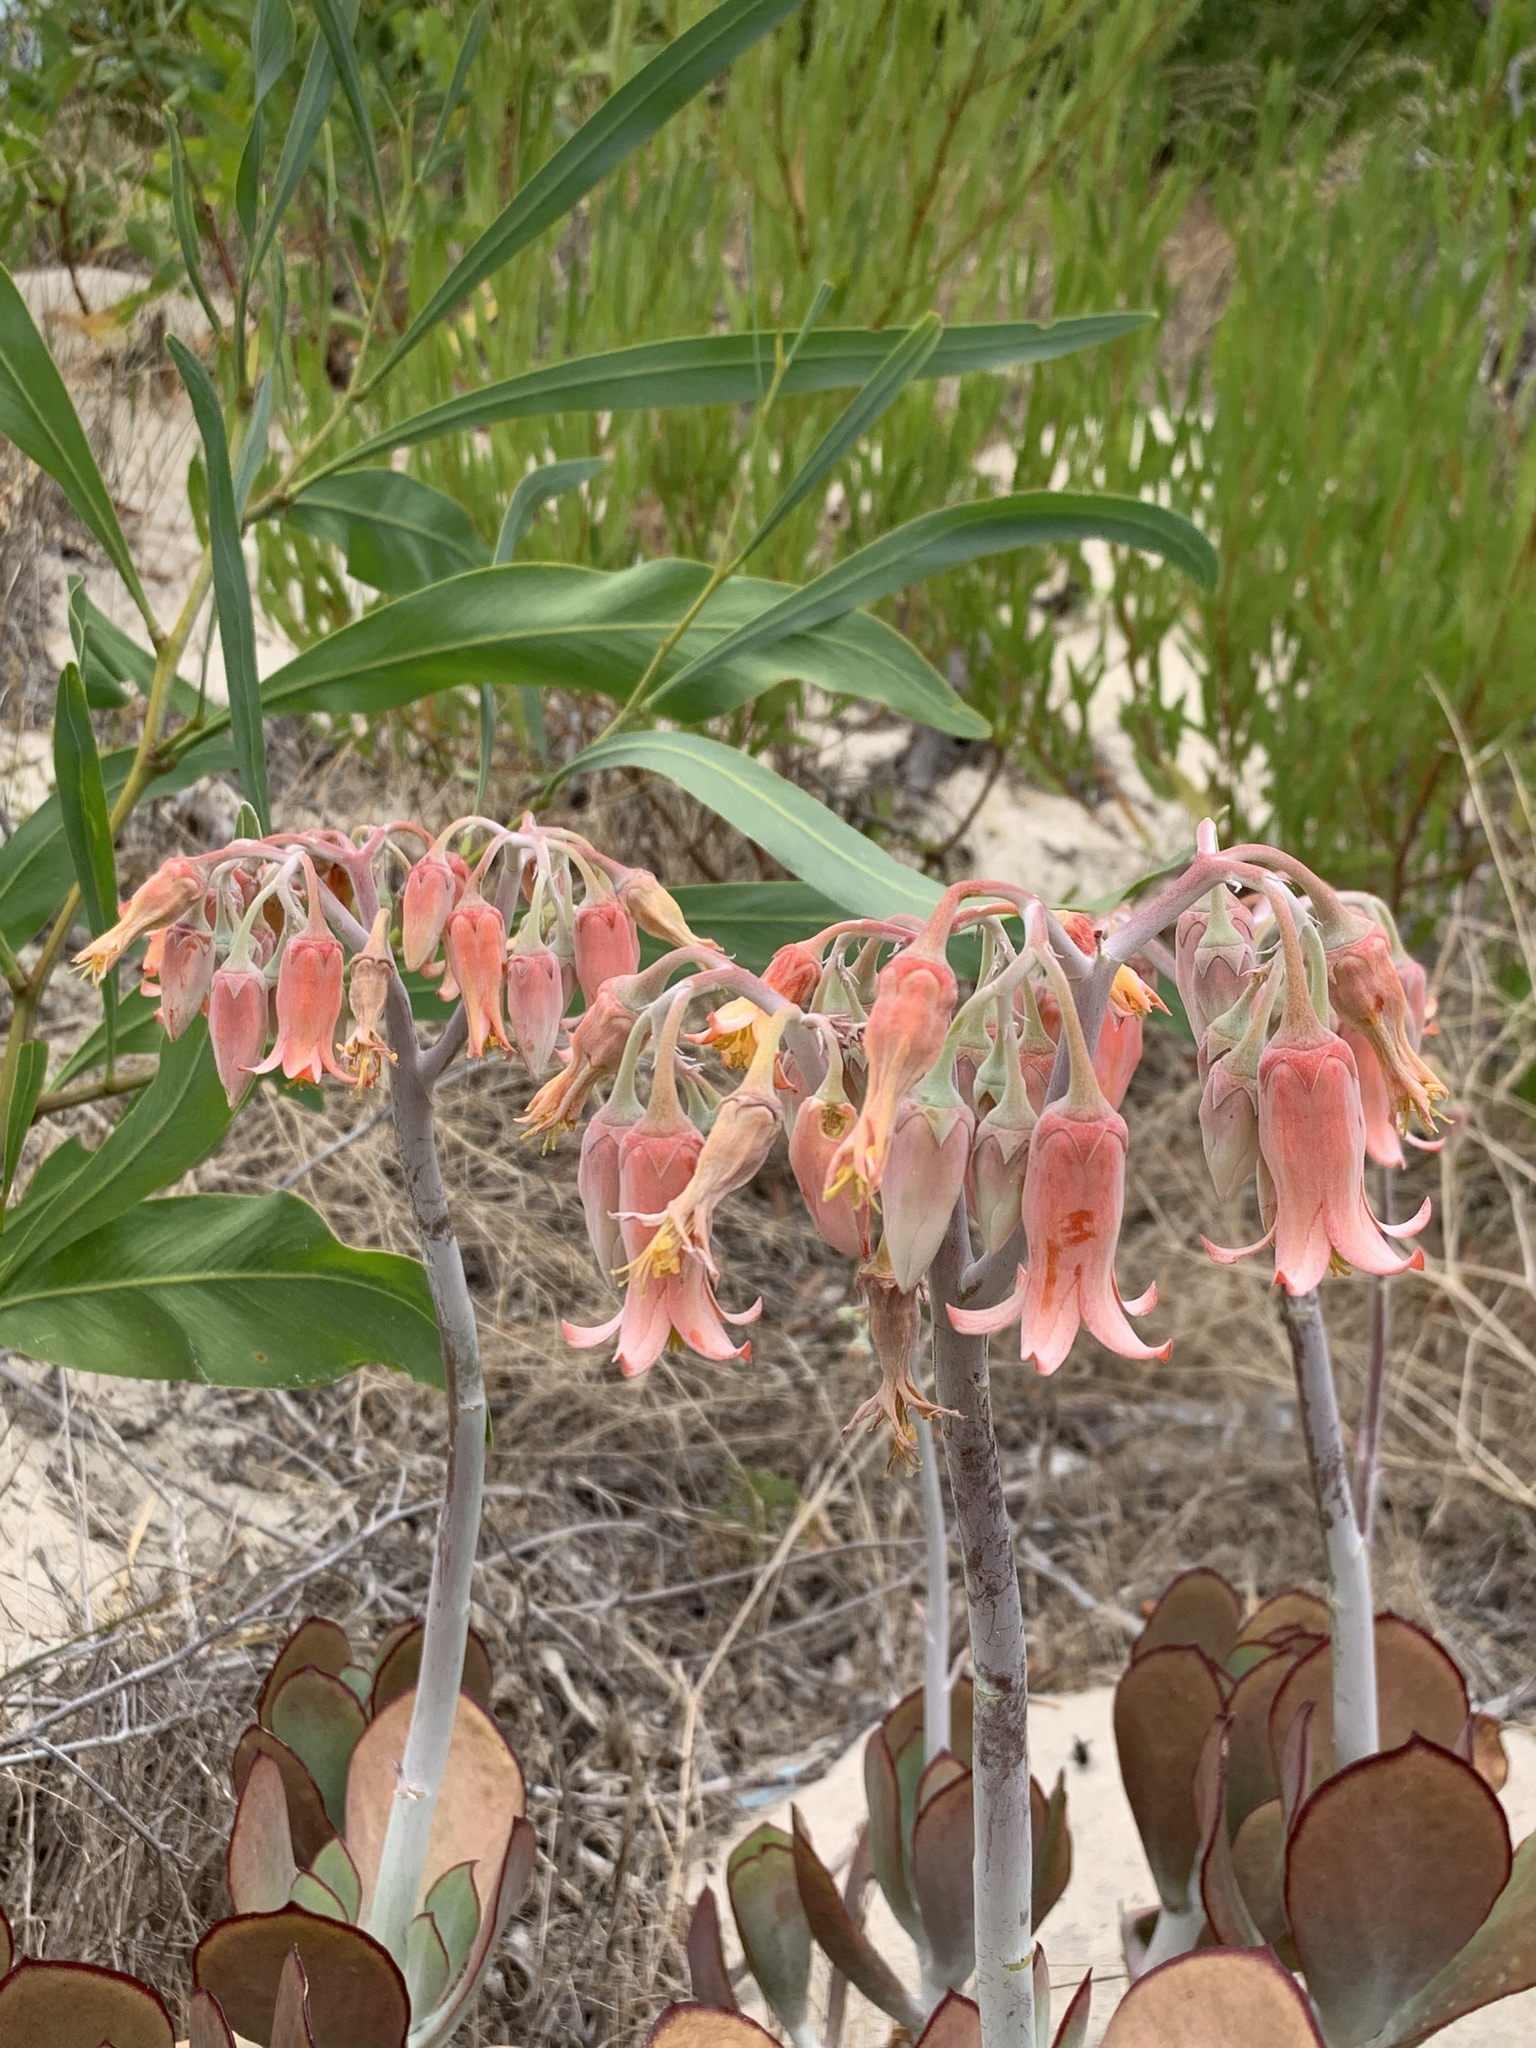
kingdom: Plantae
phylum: Tracheophyta
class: Magnoliopsida
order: Saxifragales
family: Crassulaceae
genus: Cotyledon
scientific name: Cotyledon orbiculata
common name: Pig's ear
